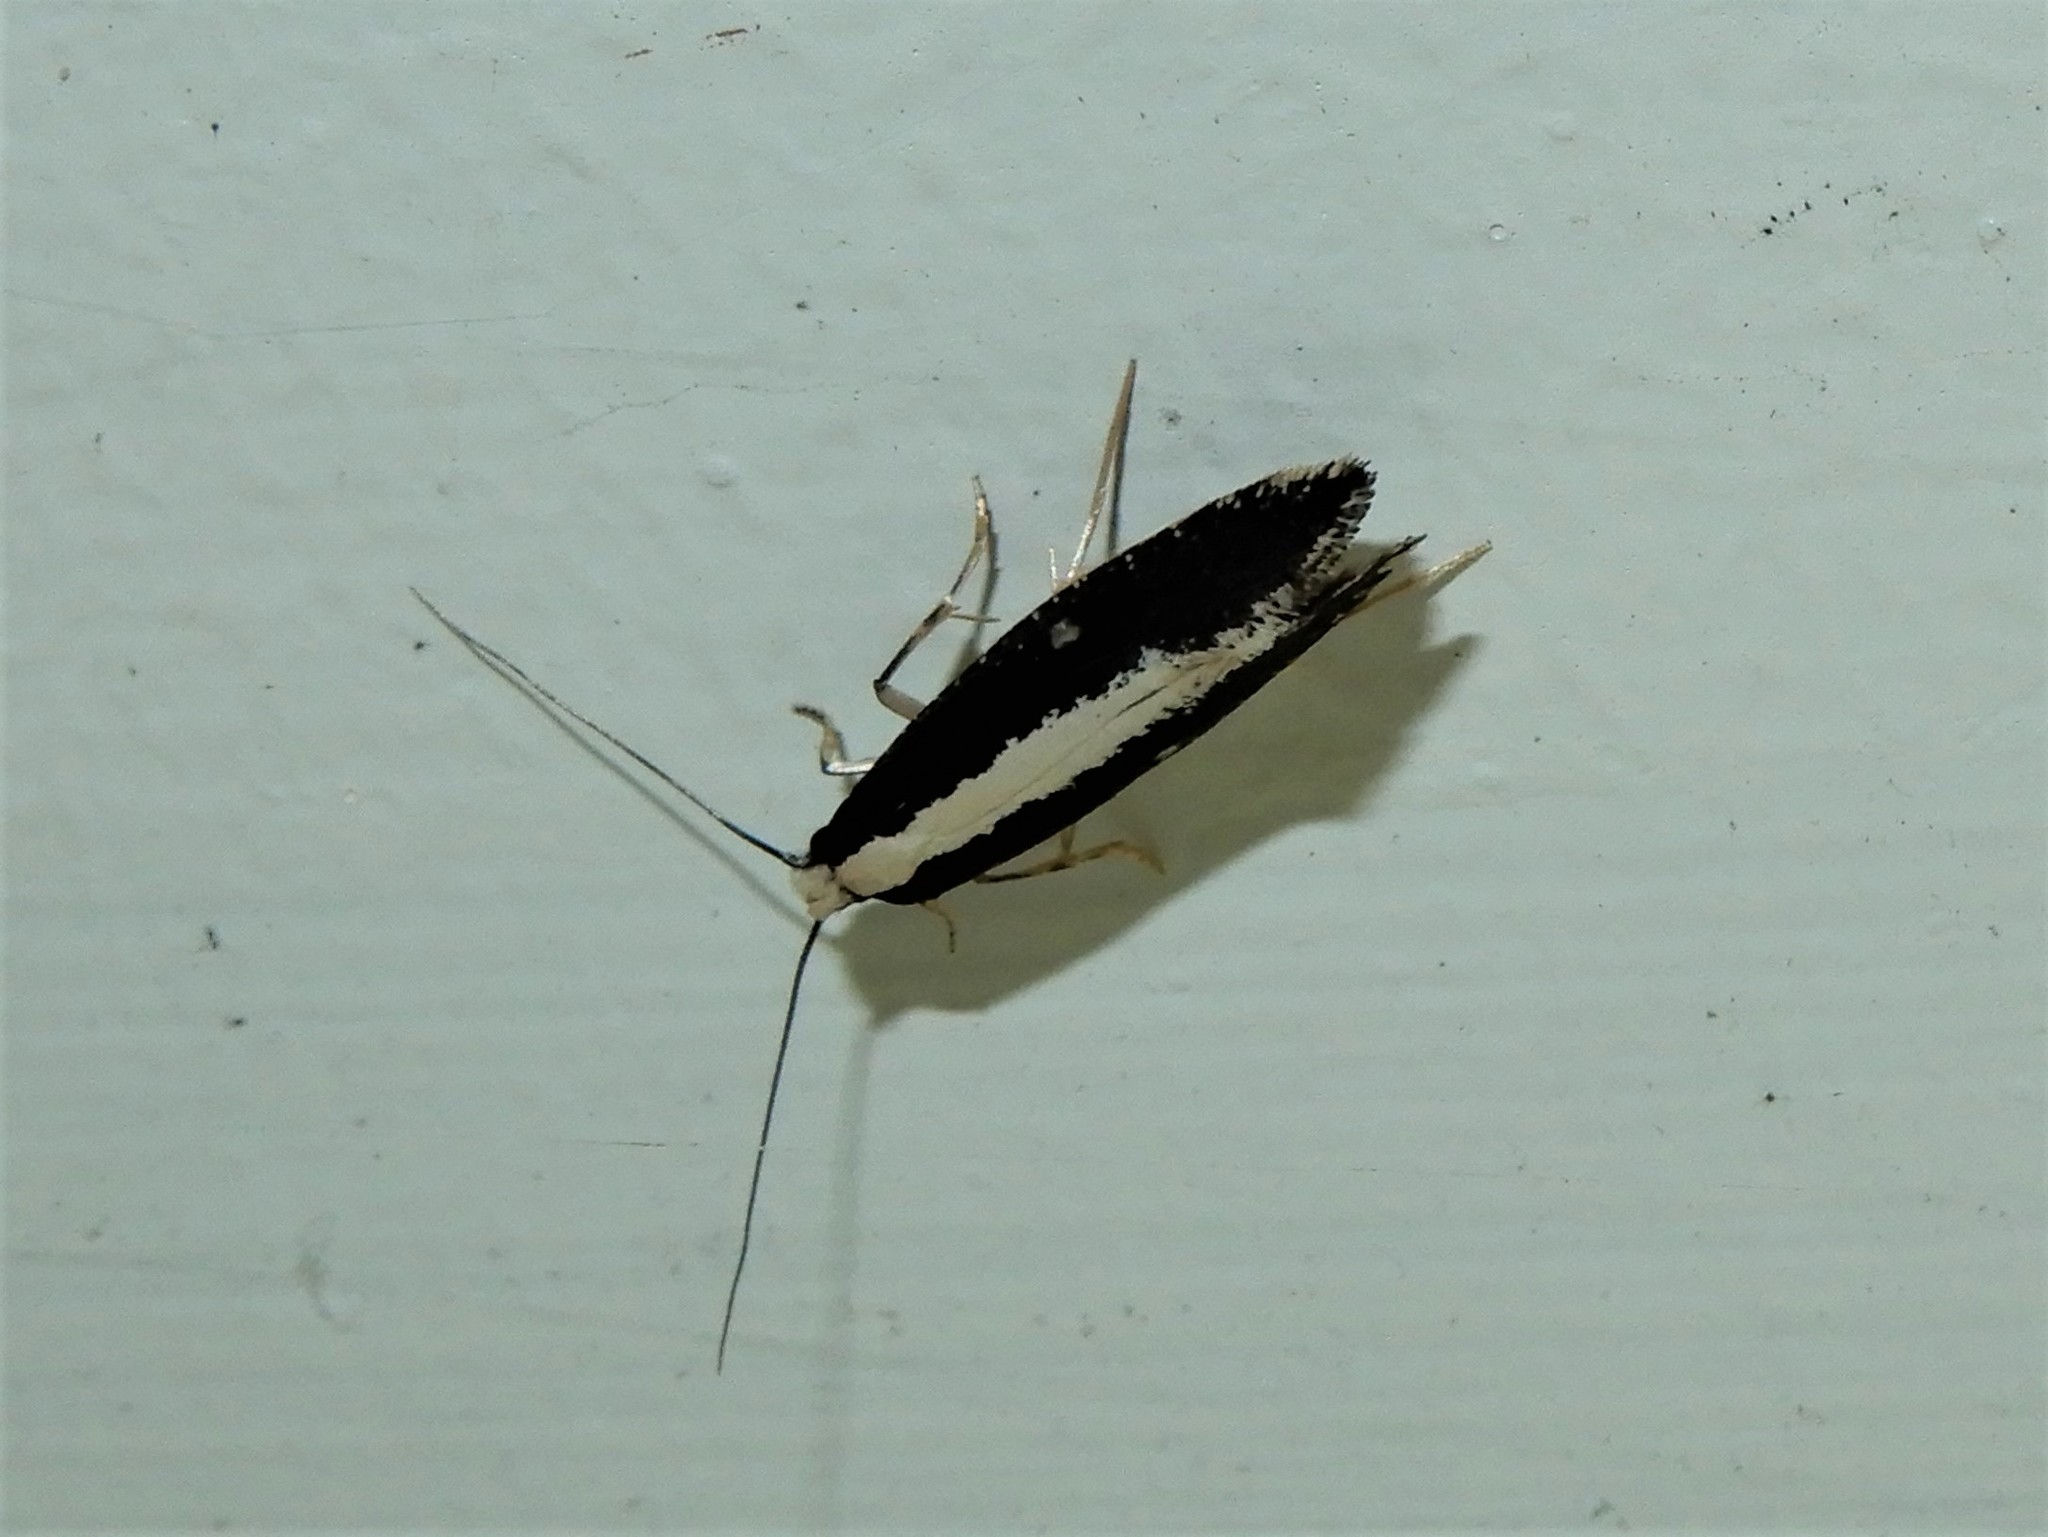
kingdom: Animalia
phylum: Arthropoda
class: Insecta
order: Lepidoptera
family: Tineidae
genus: Monopis
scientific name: Monopis ethelella
